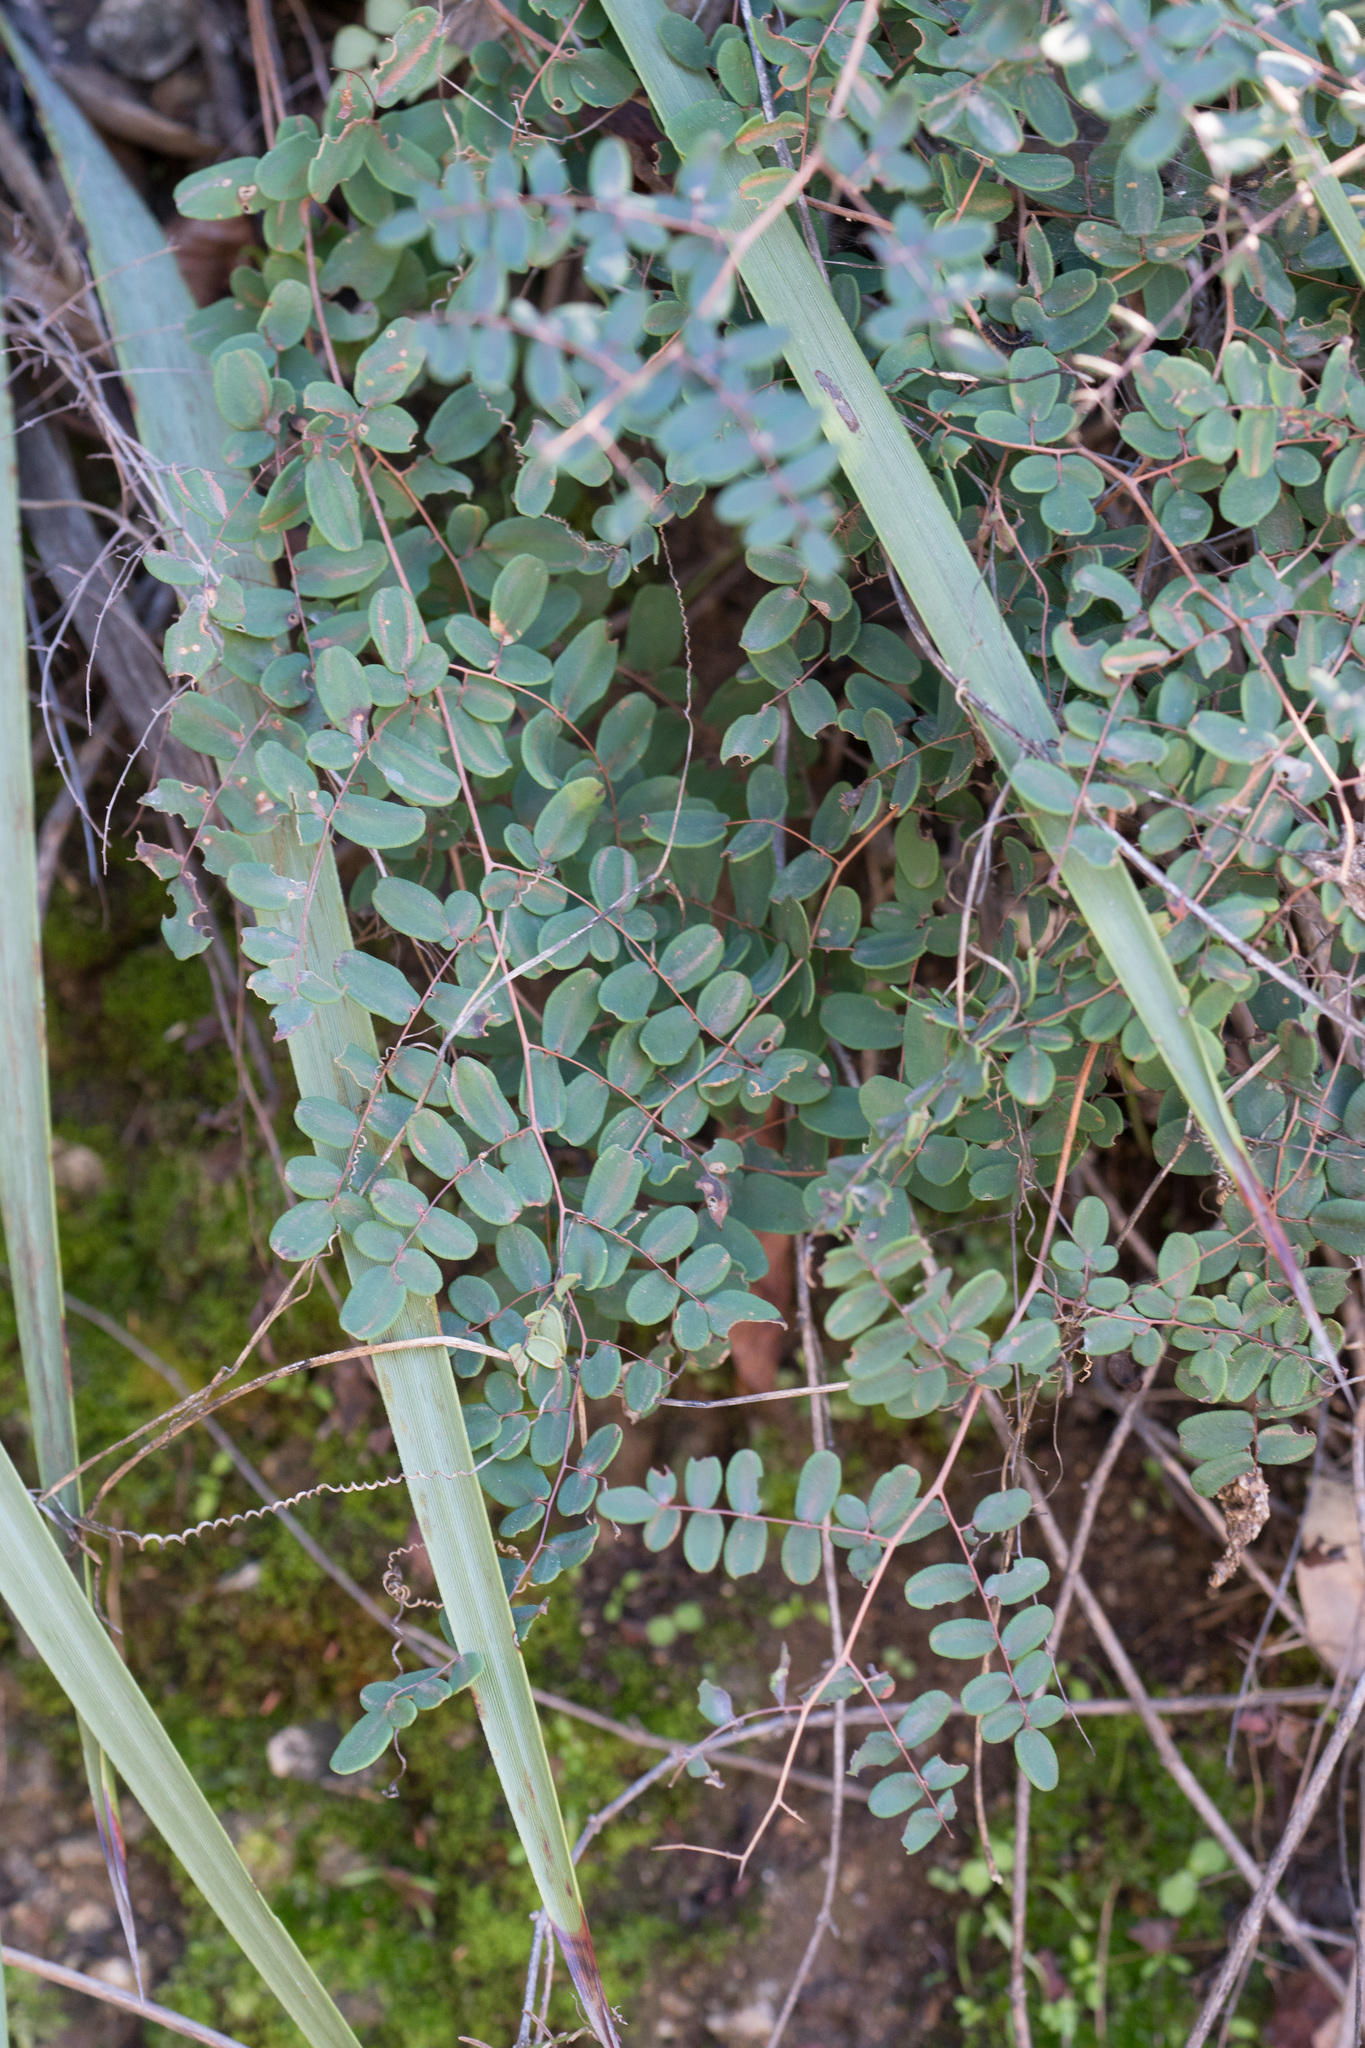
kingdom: Plantae
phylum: Tracheophyta
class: Polypodiopsida
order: Polypodiales
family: Pteridaceae
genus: Pellaea
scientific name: Pellaea andromedifolia
